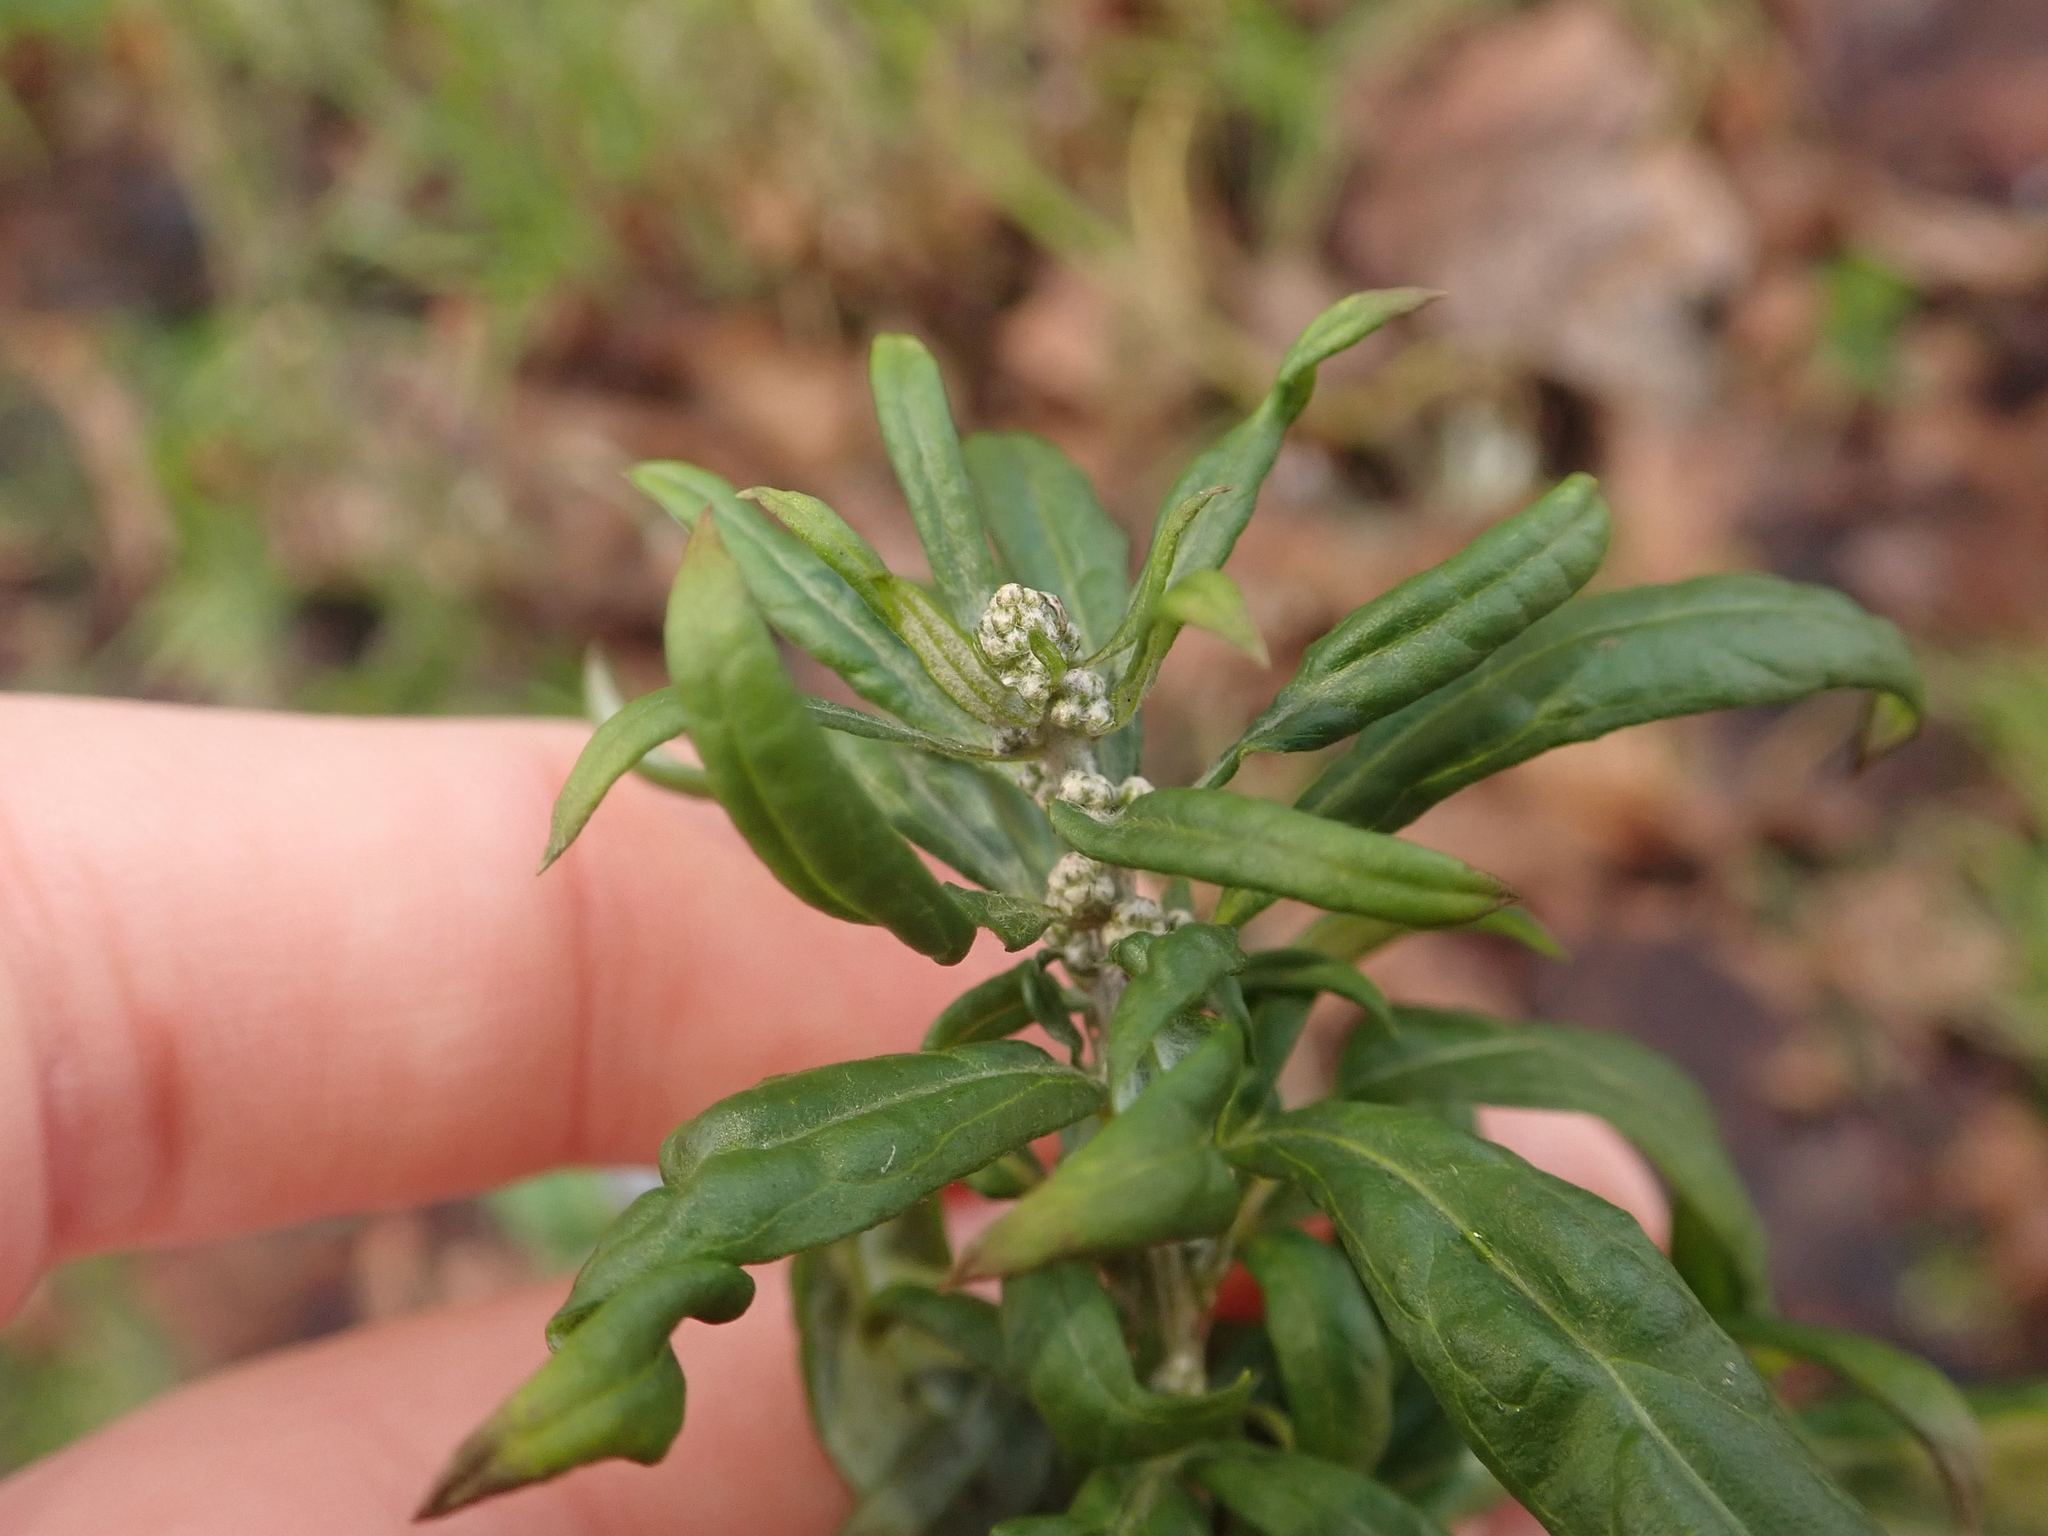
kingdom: Plantae
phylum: Tracheophyta
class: Magnoliopsida
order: Asterales
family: Asteraceae
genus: Artemisia
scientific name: Artemisia vulgaris
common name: Mugwort
